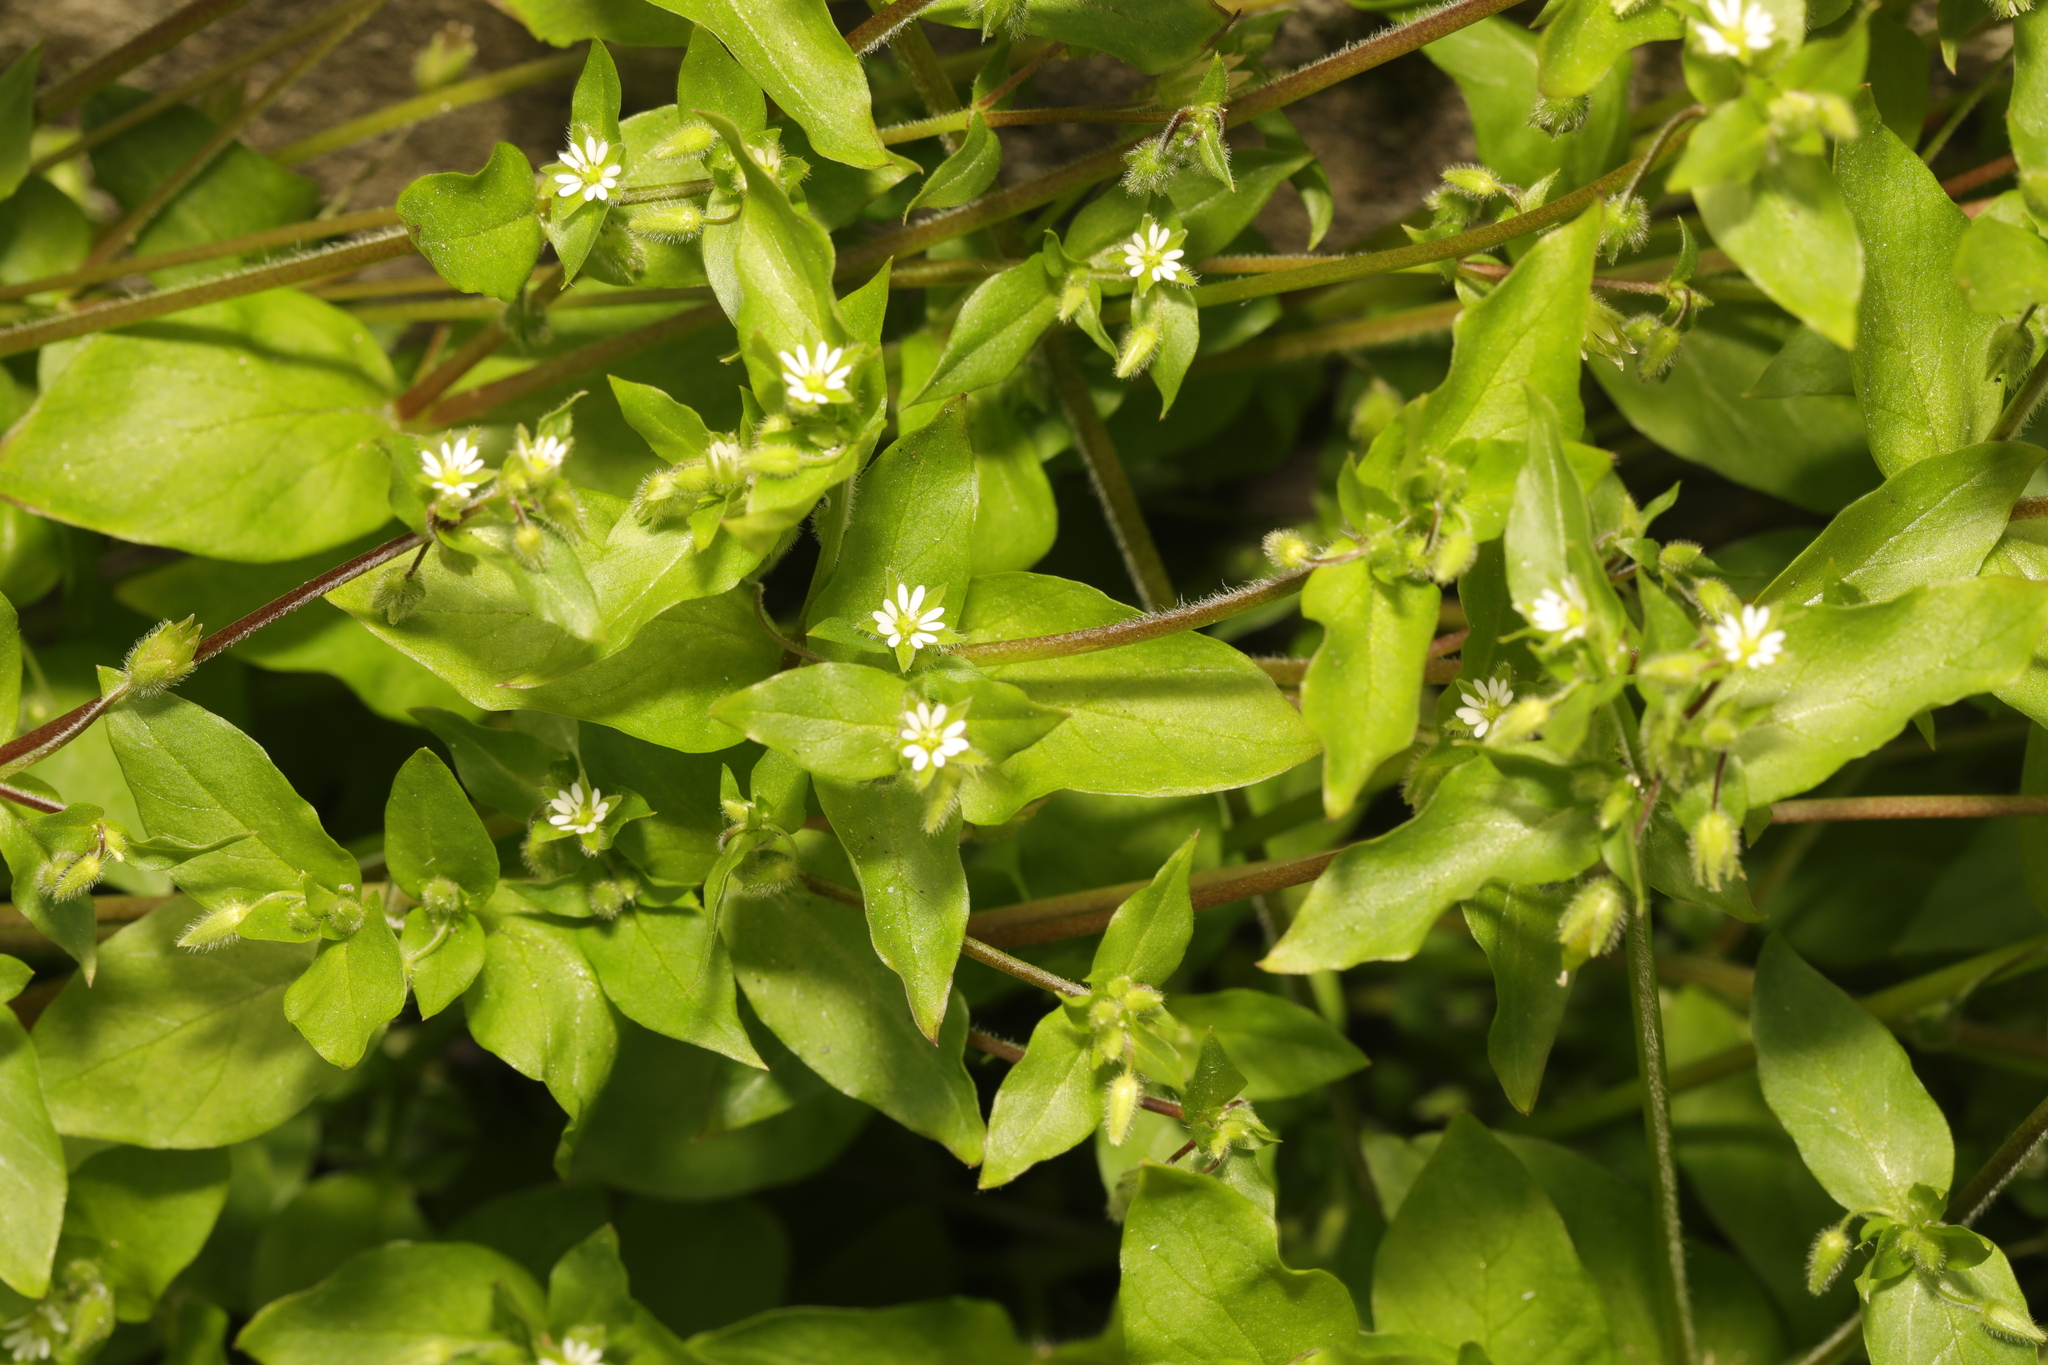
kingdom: Plantae
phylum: Tracheophyta
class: Magnoliopsida
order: Caryophyllales
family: Caryophyllaceae
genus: Stellaria
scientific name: Stellaria media
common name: Common chickweed
